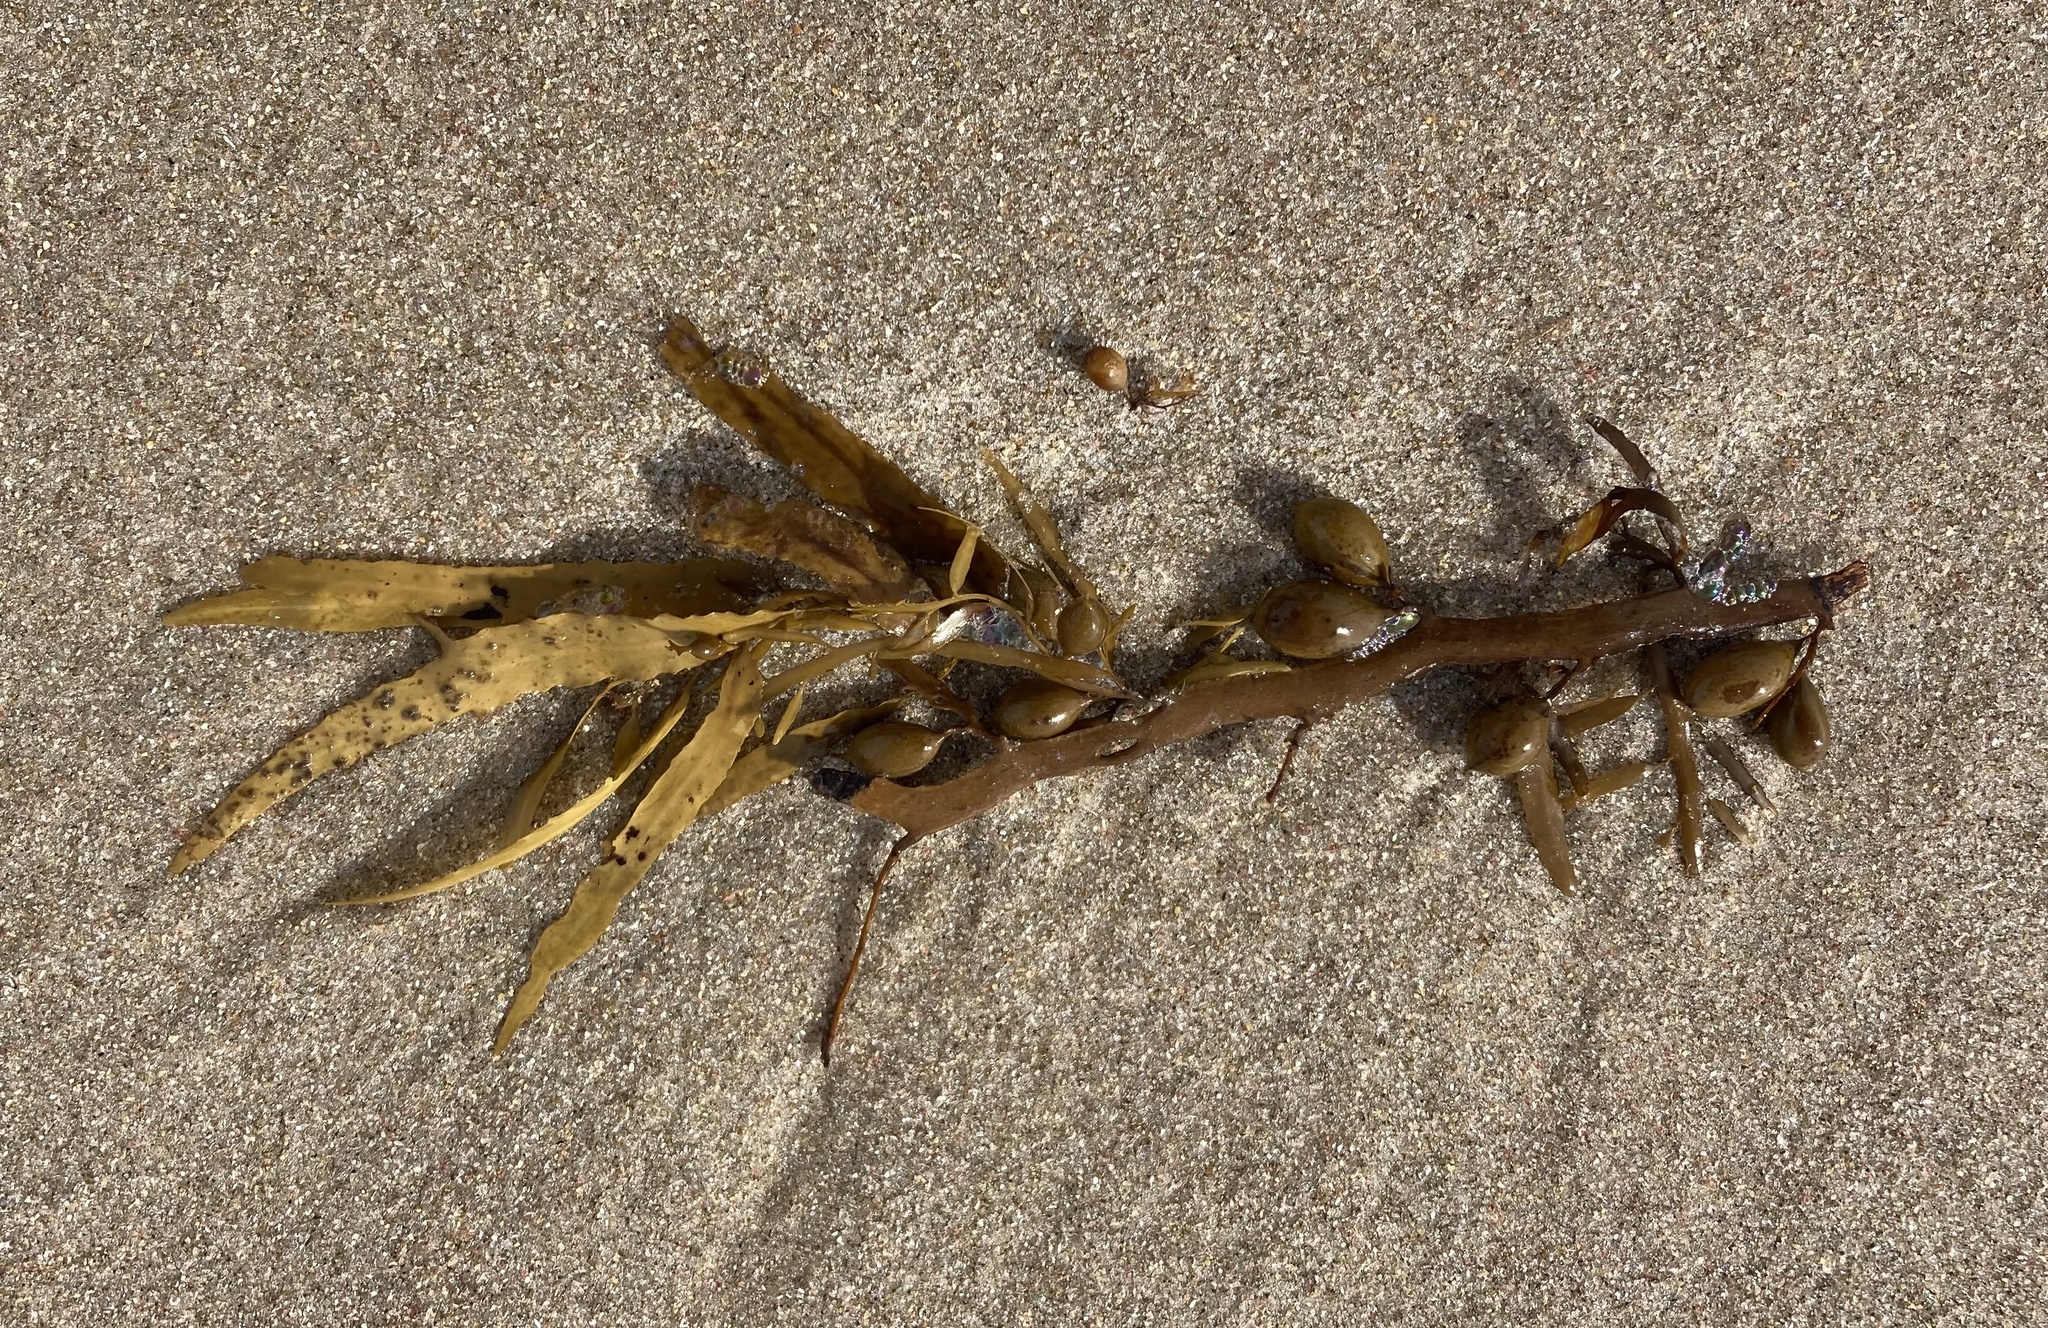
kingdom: Chromista
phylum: Ochrophyta
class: Phaeophyceae
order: Fucales
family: Sargassaceae
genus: Carpophyllum
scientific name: Carpophyllum flexuosum
